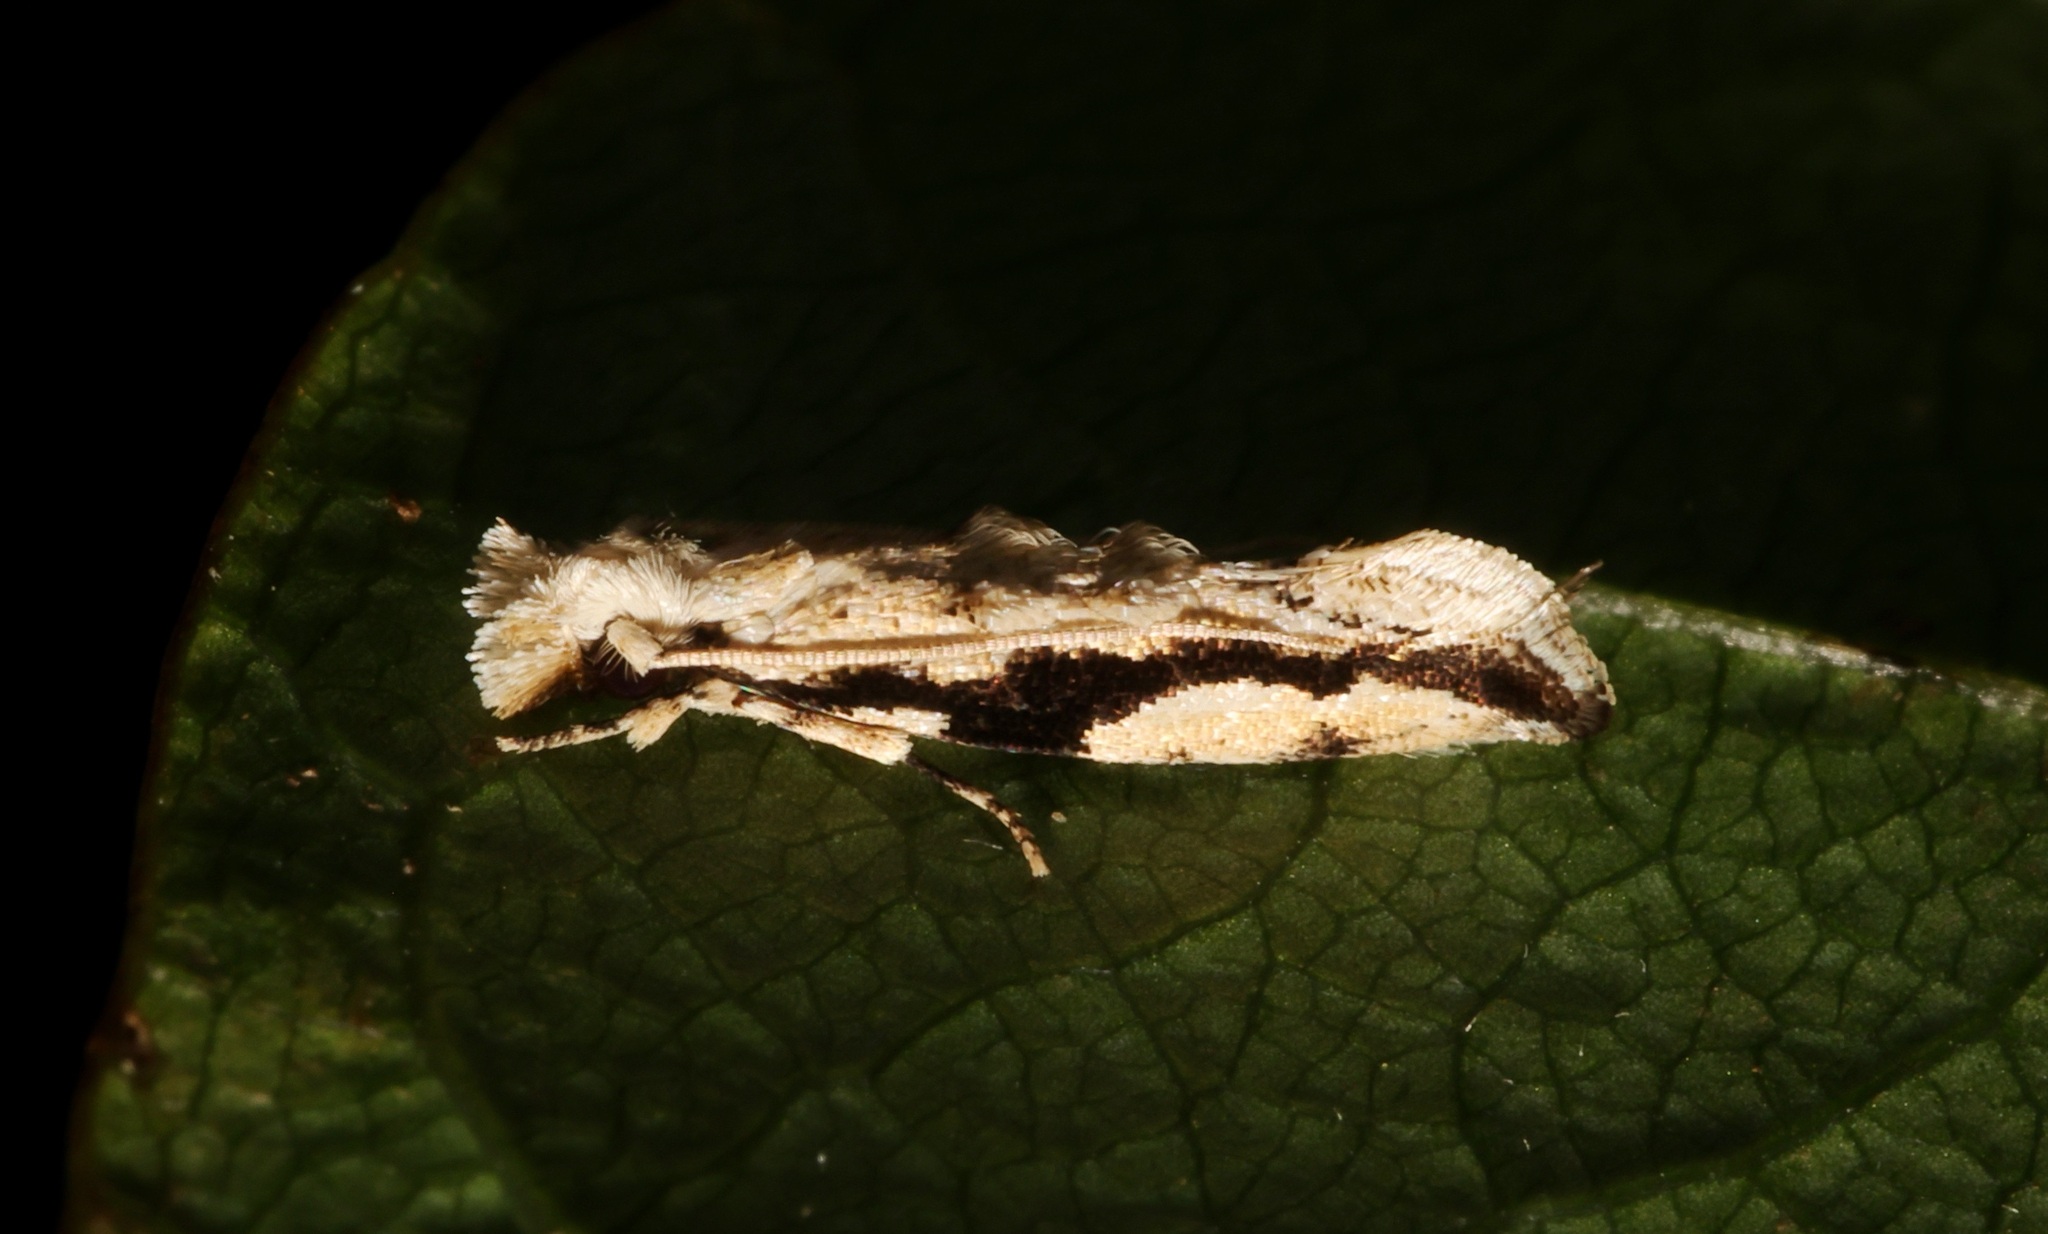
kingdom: Animalia
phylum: Arthropoda
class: Insecta
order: Lepidoptera
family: Tineidae
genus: Erechthias
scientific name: Erechthias atririvis
